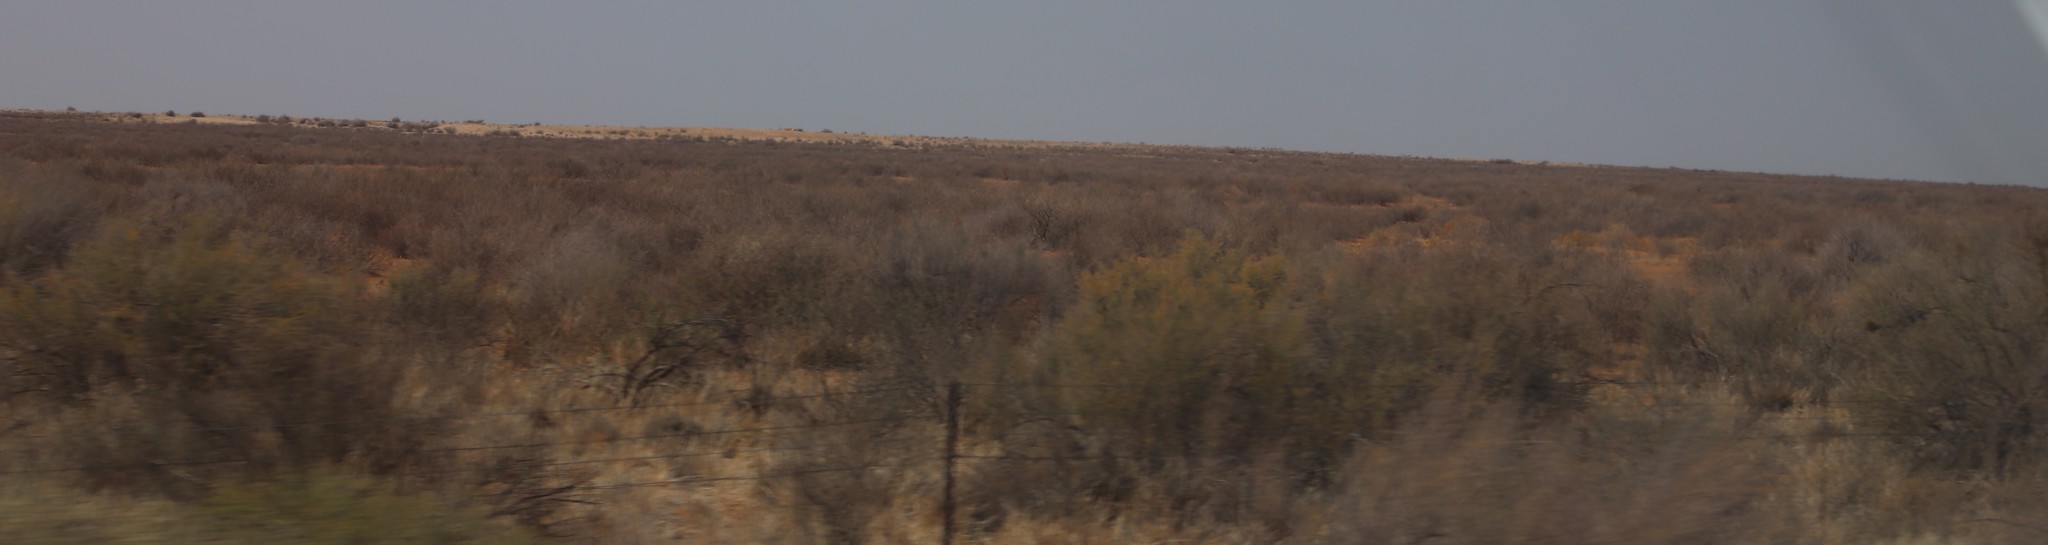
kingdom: Plantae
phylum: Tracheophyta
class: Magnoliopsida
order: Lamiales
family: Bignoniaceae
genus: Rhigozum
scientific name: Rhigozum trichotomum
